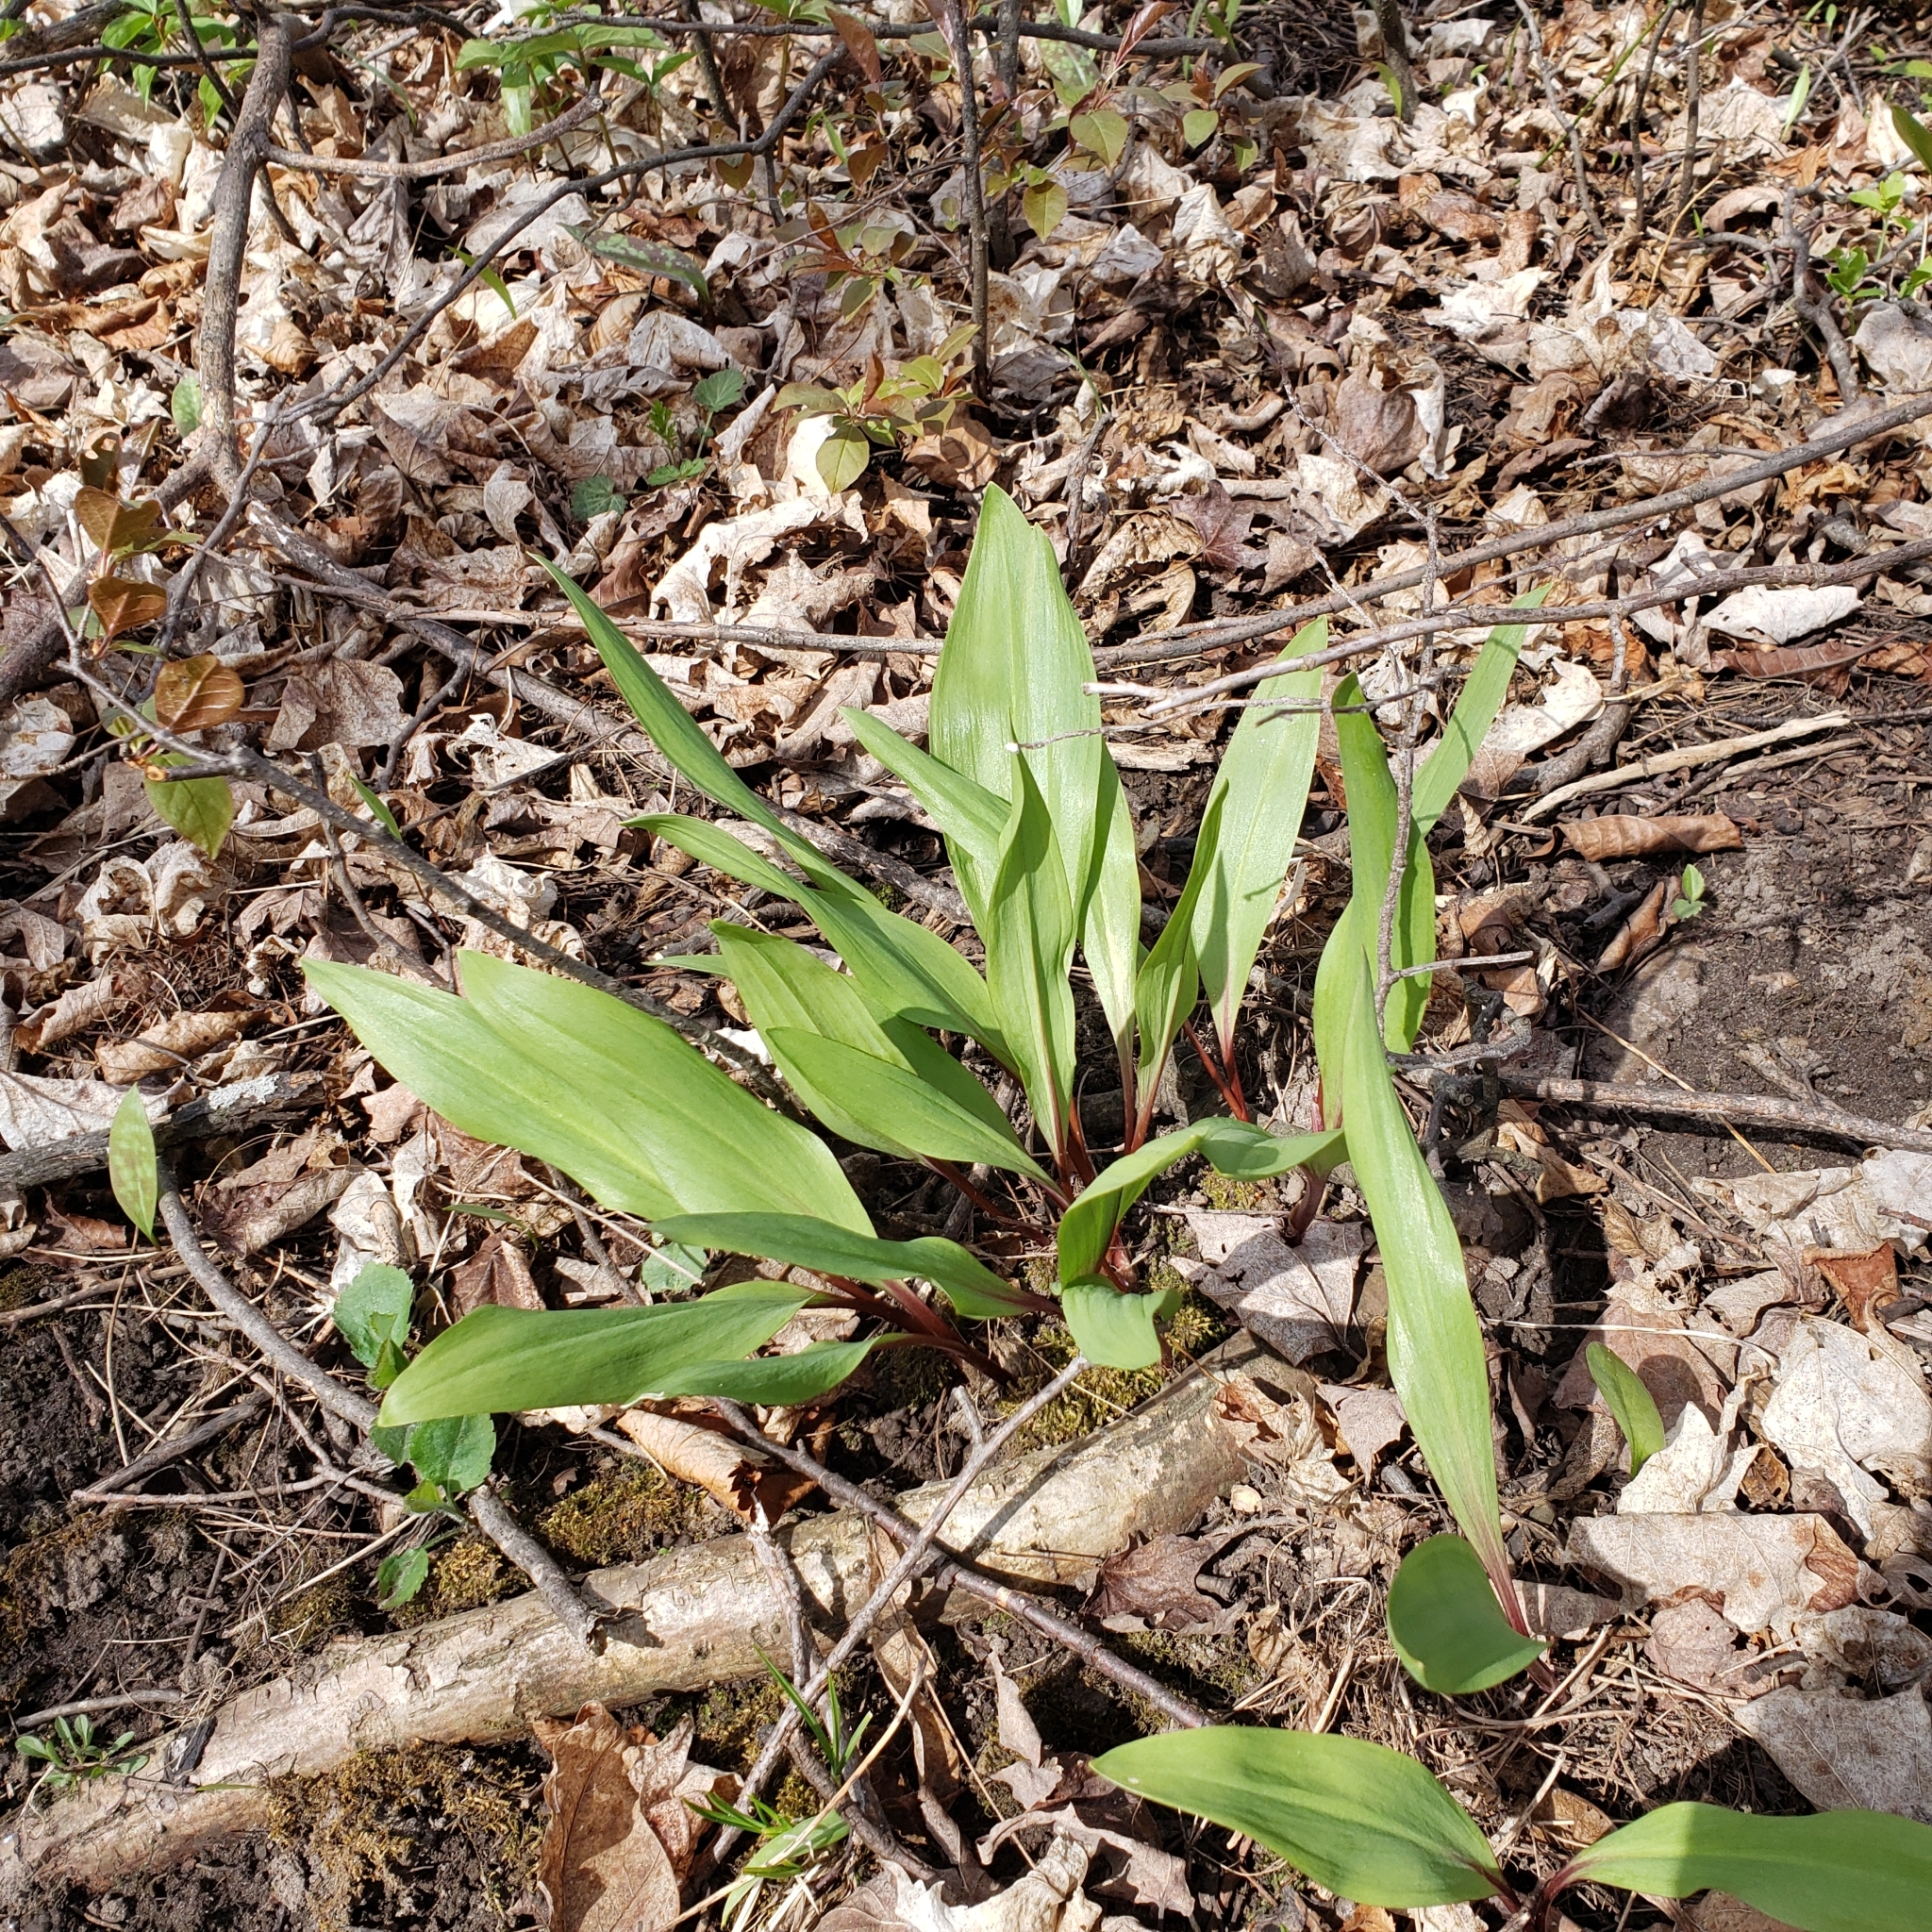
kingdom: Plantae
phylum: Tracheophyta
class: Liliopsida
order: Asparagales
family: Amaryllidaceae
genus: Allium
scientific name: Allium tricoccum
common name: Ramp
